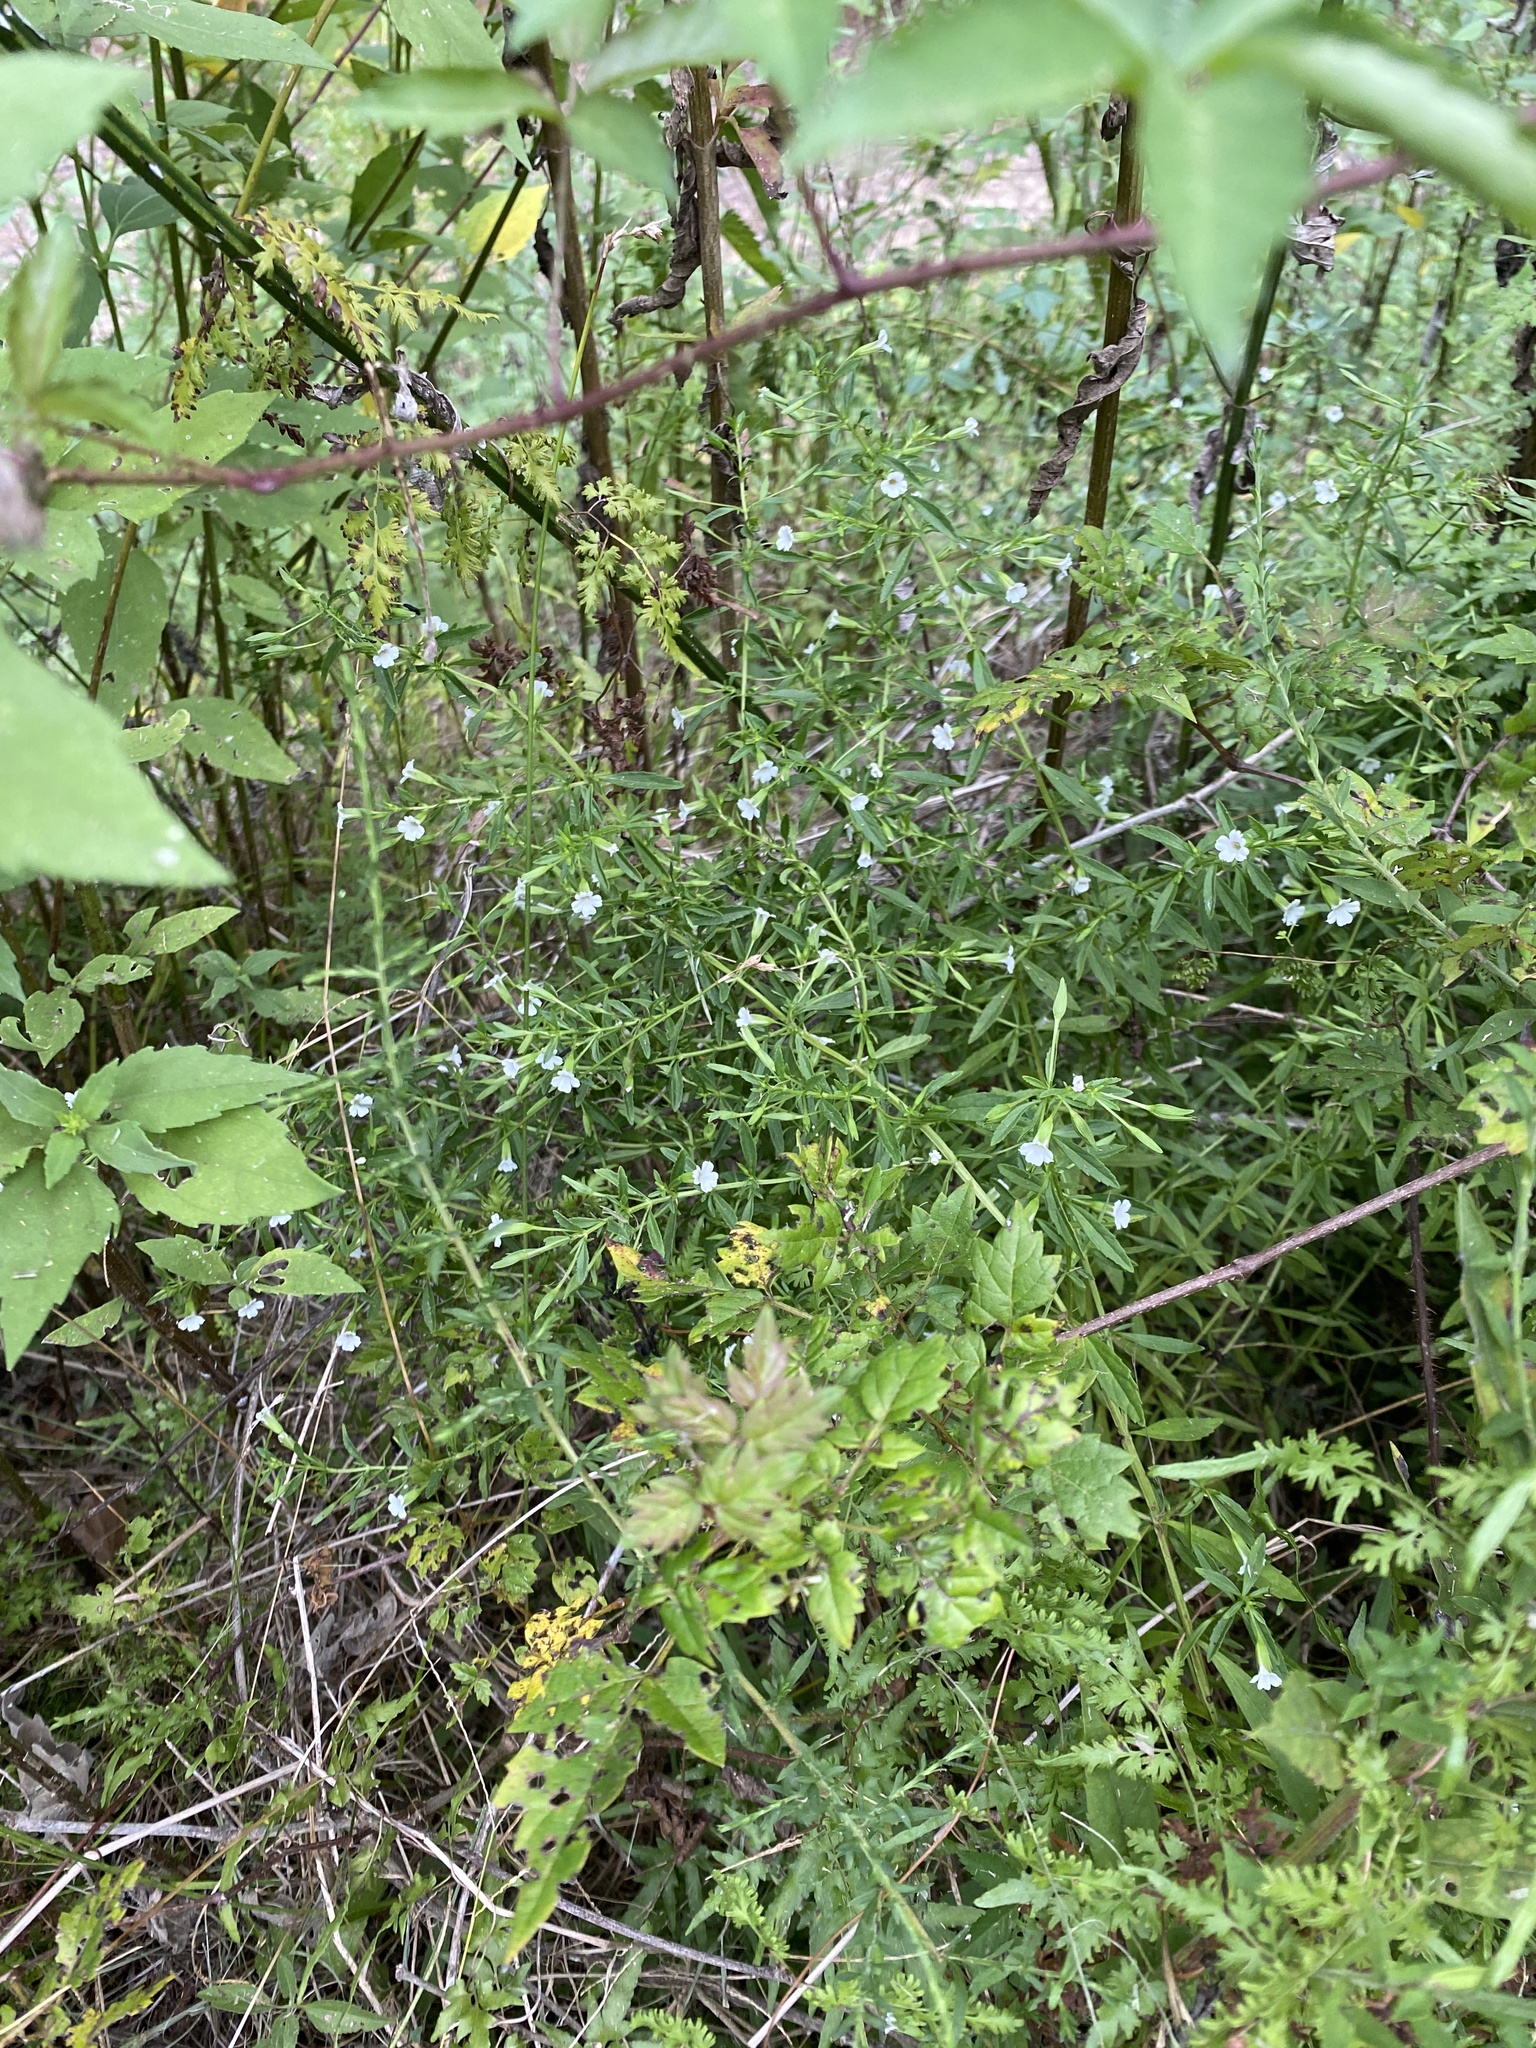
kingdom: Plantae
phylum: Tracheophyta
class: Magnoliopsida
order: Lamiales
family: Plantaginaceae
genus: Mecardonia
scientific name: Mecardonia acuminata
